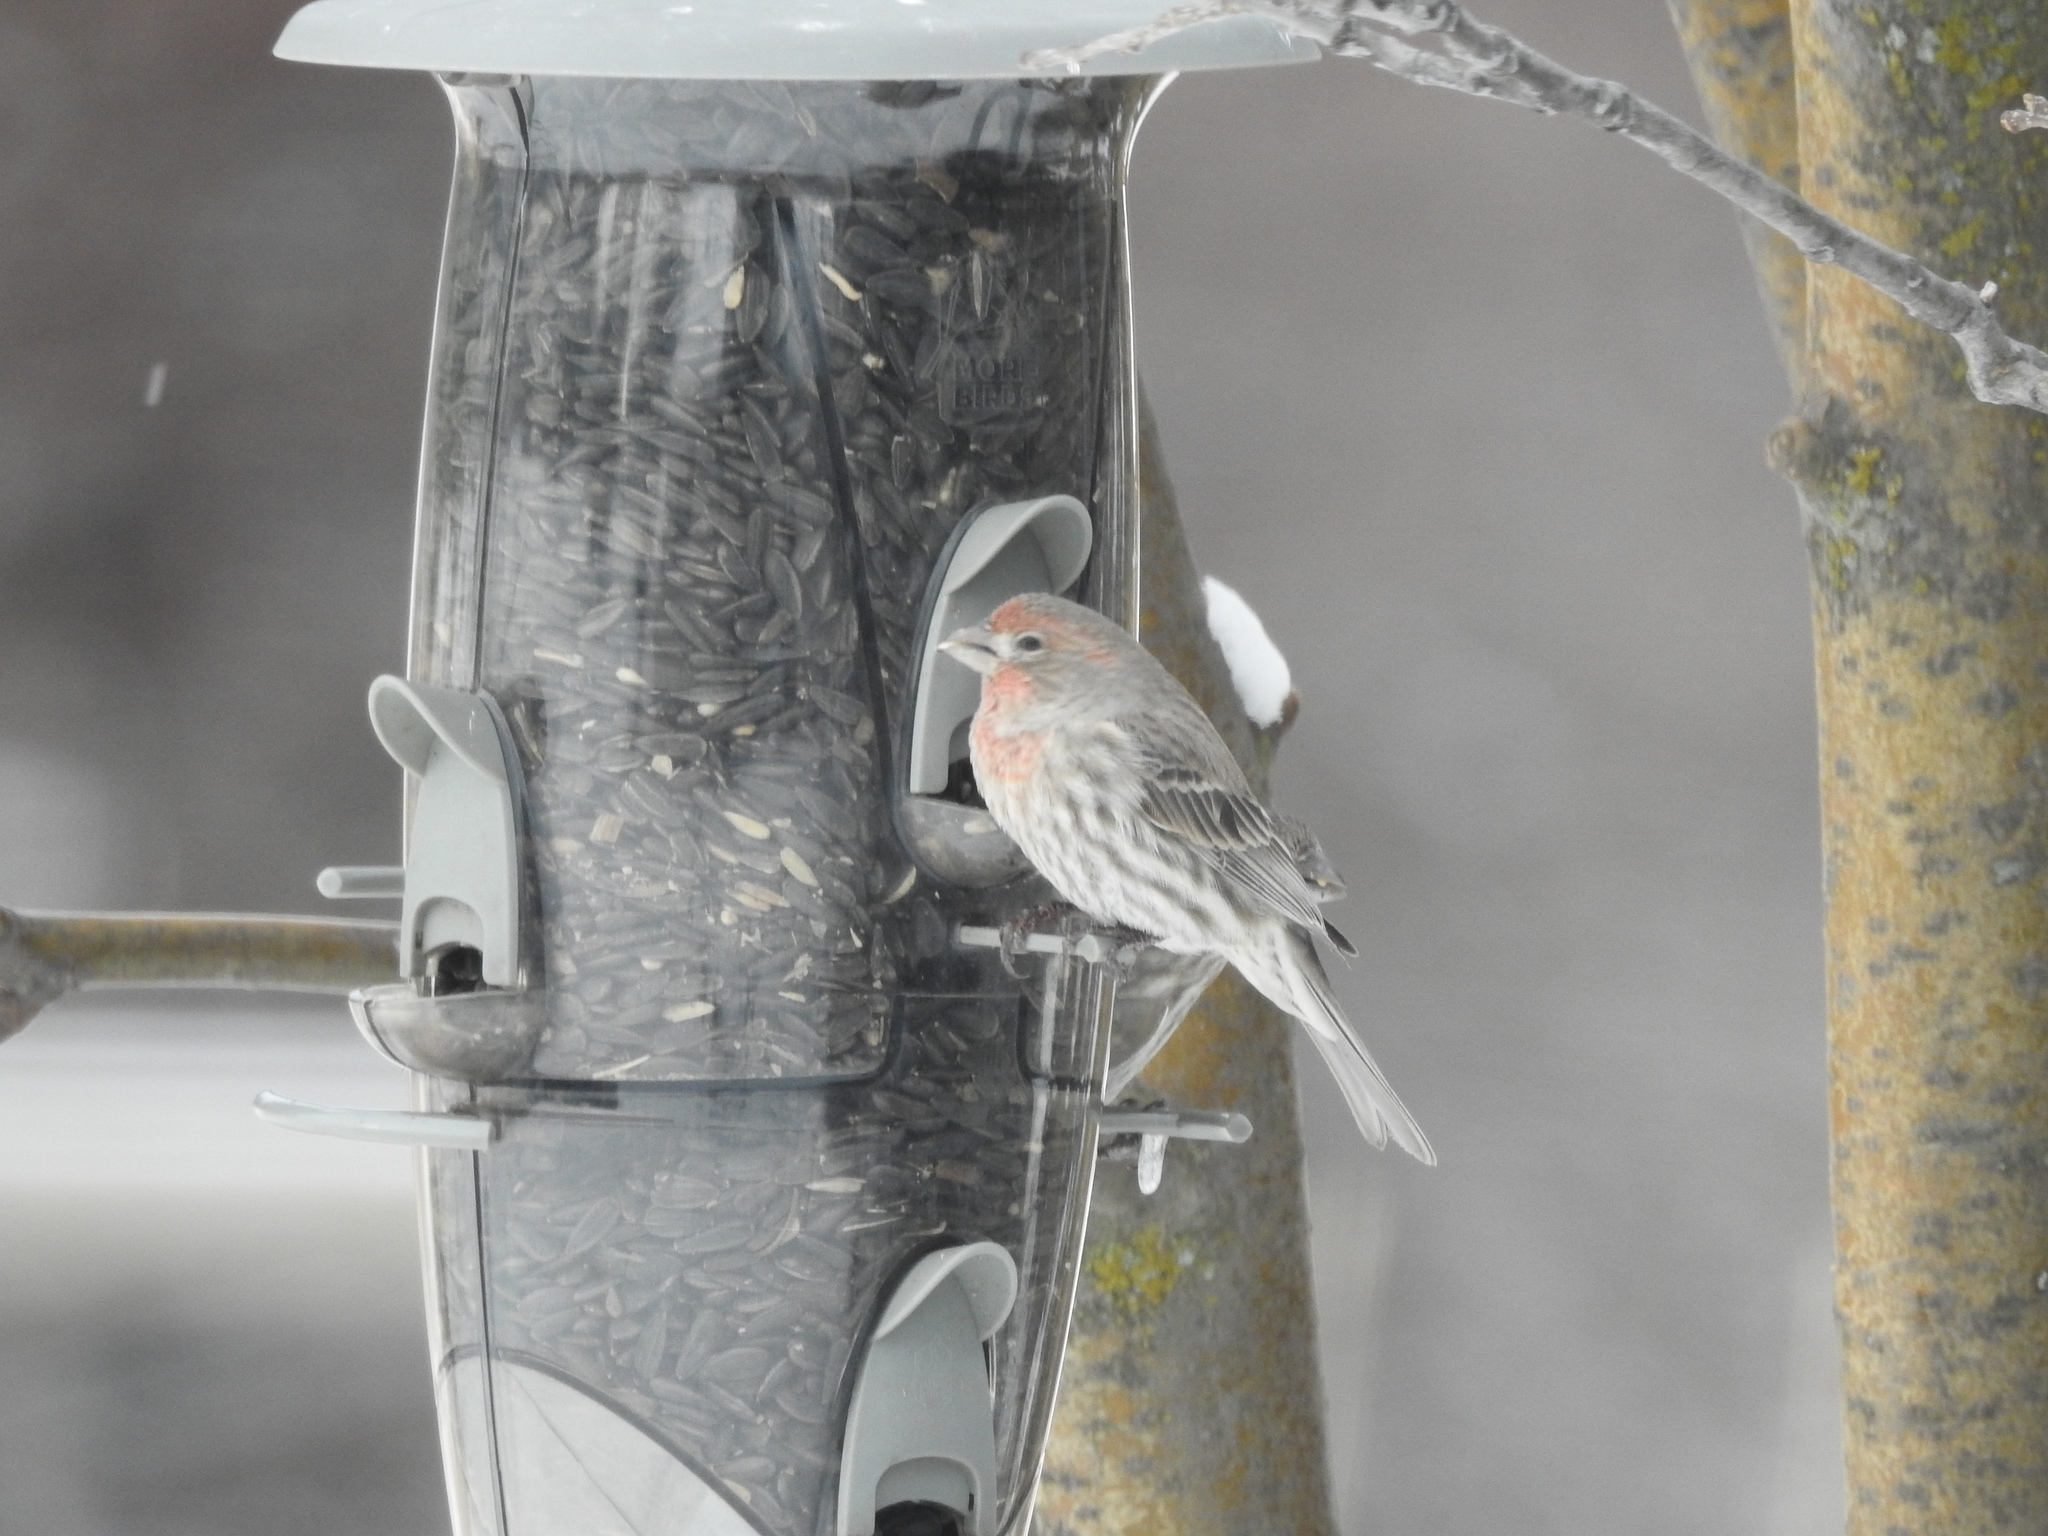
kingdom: Animalia
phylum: Chordata
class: Aves
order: Passeriformes
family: Fringillidae
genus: Haemorhous
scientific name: Haemorhous mexicanus
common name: House finch
